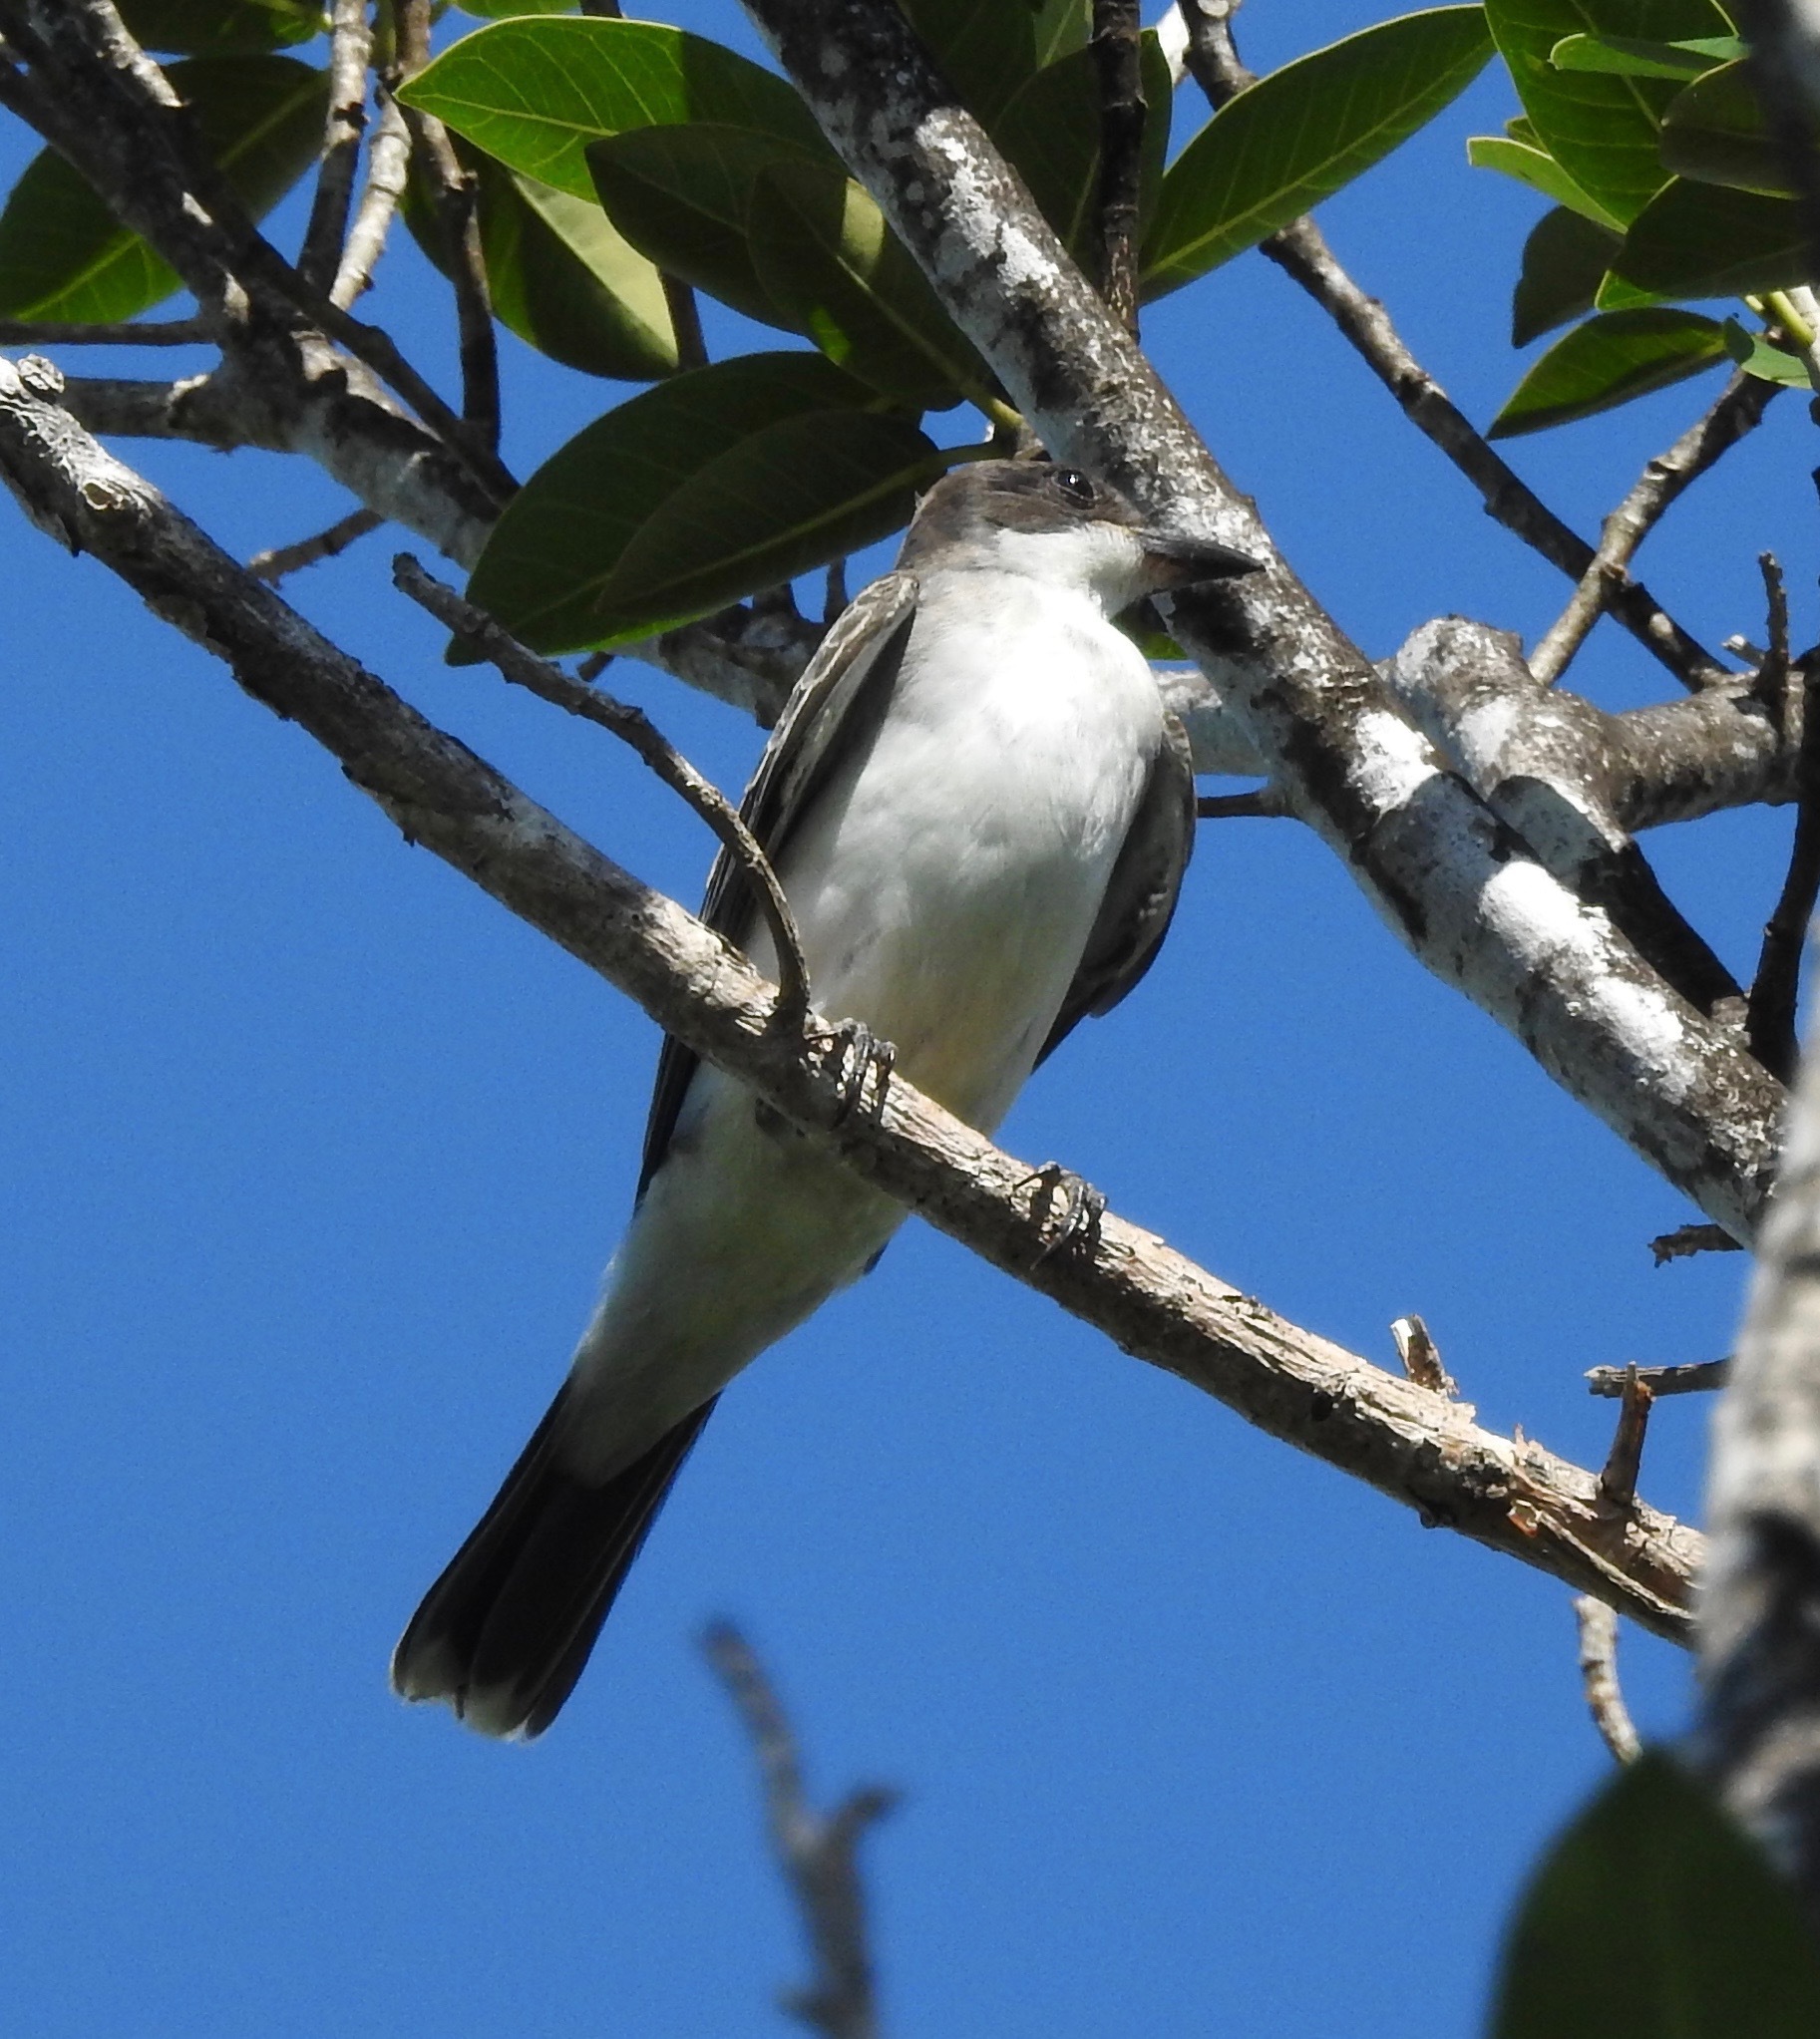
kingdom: Animalia
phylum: Chordata
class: Aves
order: Passeriformes
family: Tyrannidae
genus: Tyrannus
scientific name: Tyrannus tyrannus
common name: Eastern kingbird
